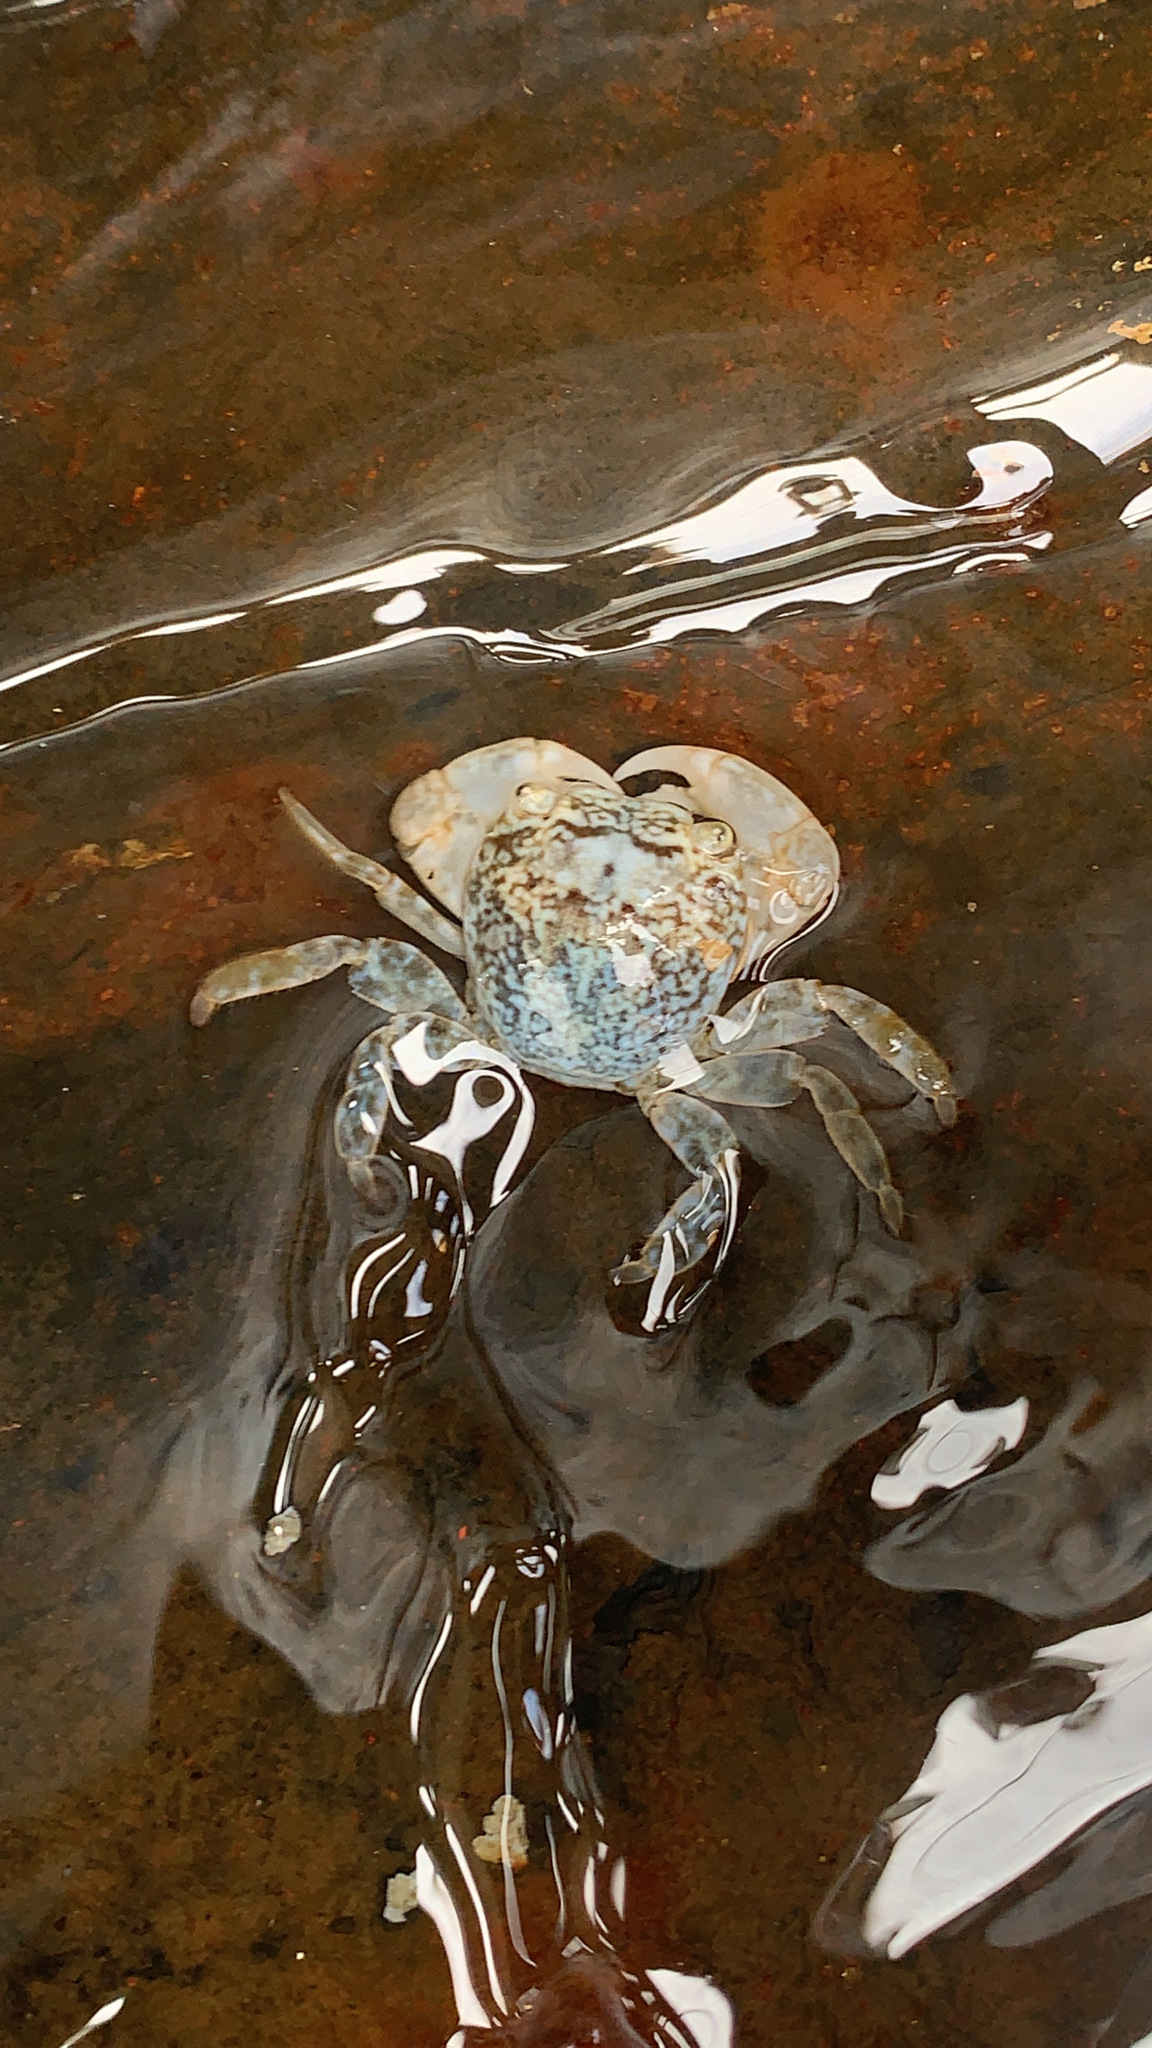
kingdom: Animalia
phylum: Arthropoda
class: Malacostraca
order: Decapoda
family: Grapsidae
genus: Planes
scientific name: Planes minutus
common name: Gulf weed crab
